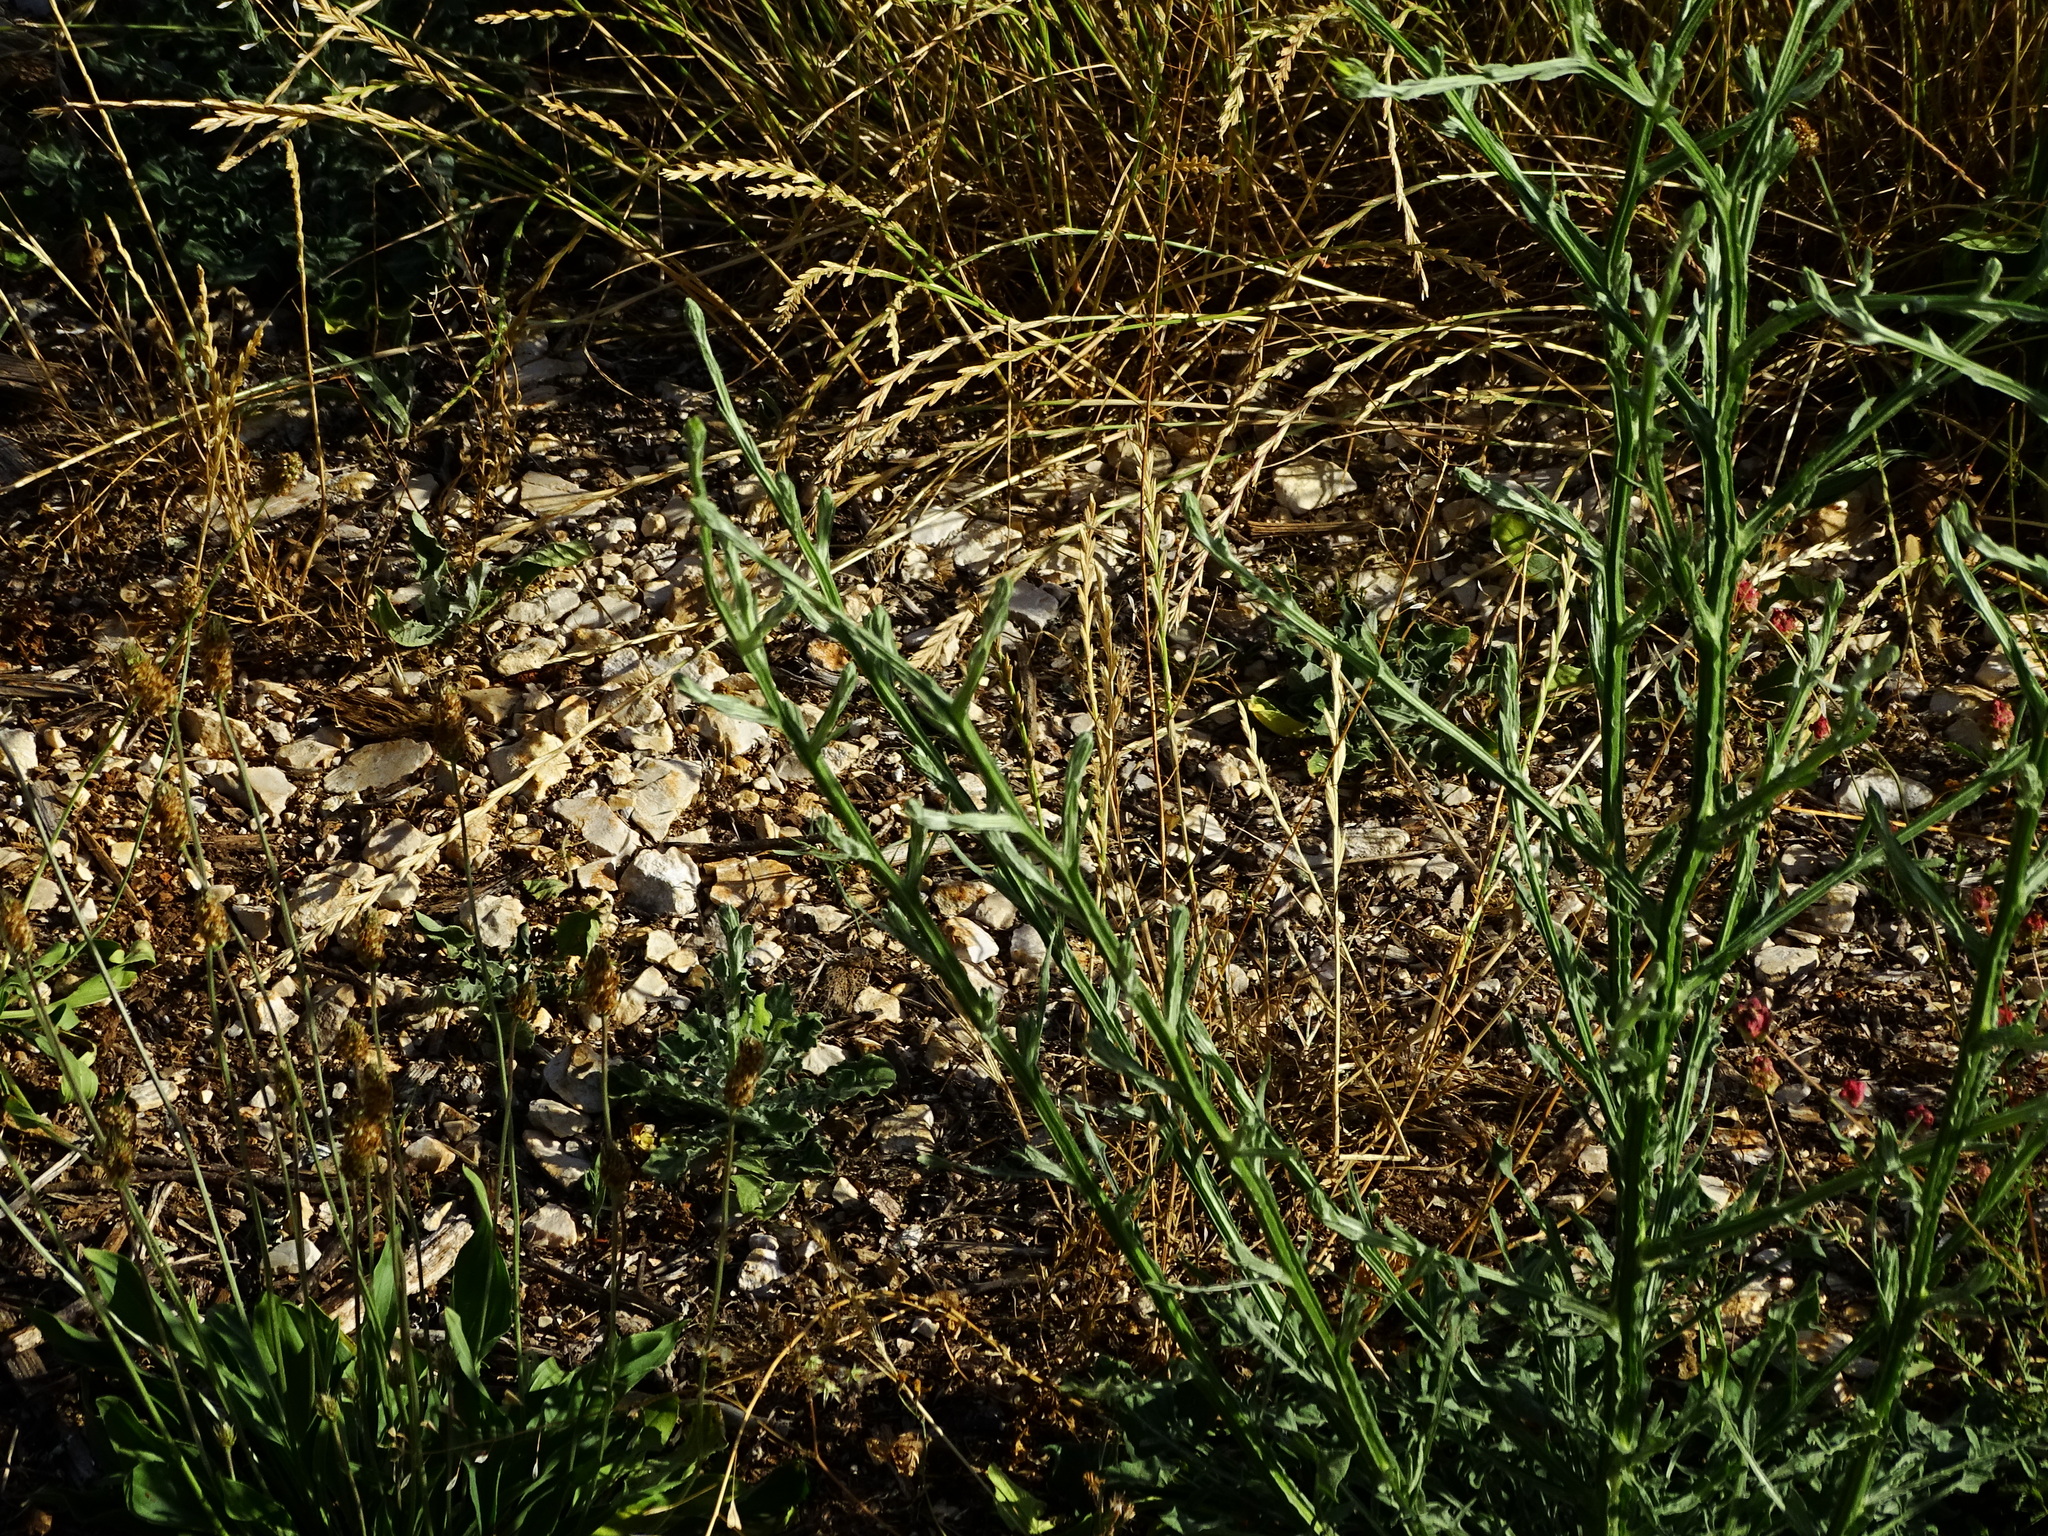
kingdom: Plantae
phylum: Tracheophyta
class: Magnoliopsida
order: Asterales
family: Asteraceae
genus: Centaurea
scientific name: Centaurea solstitialis
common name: Yellow star-thistle
